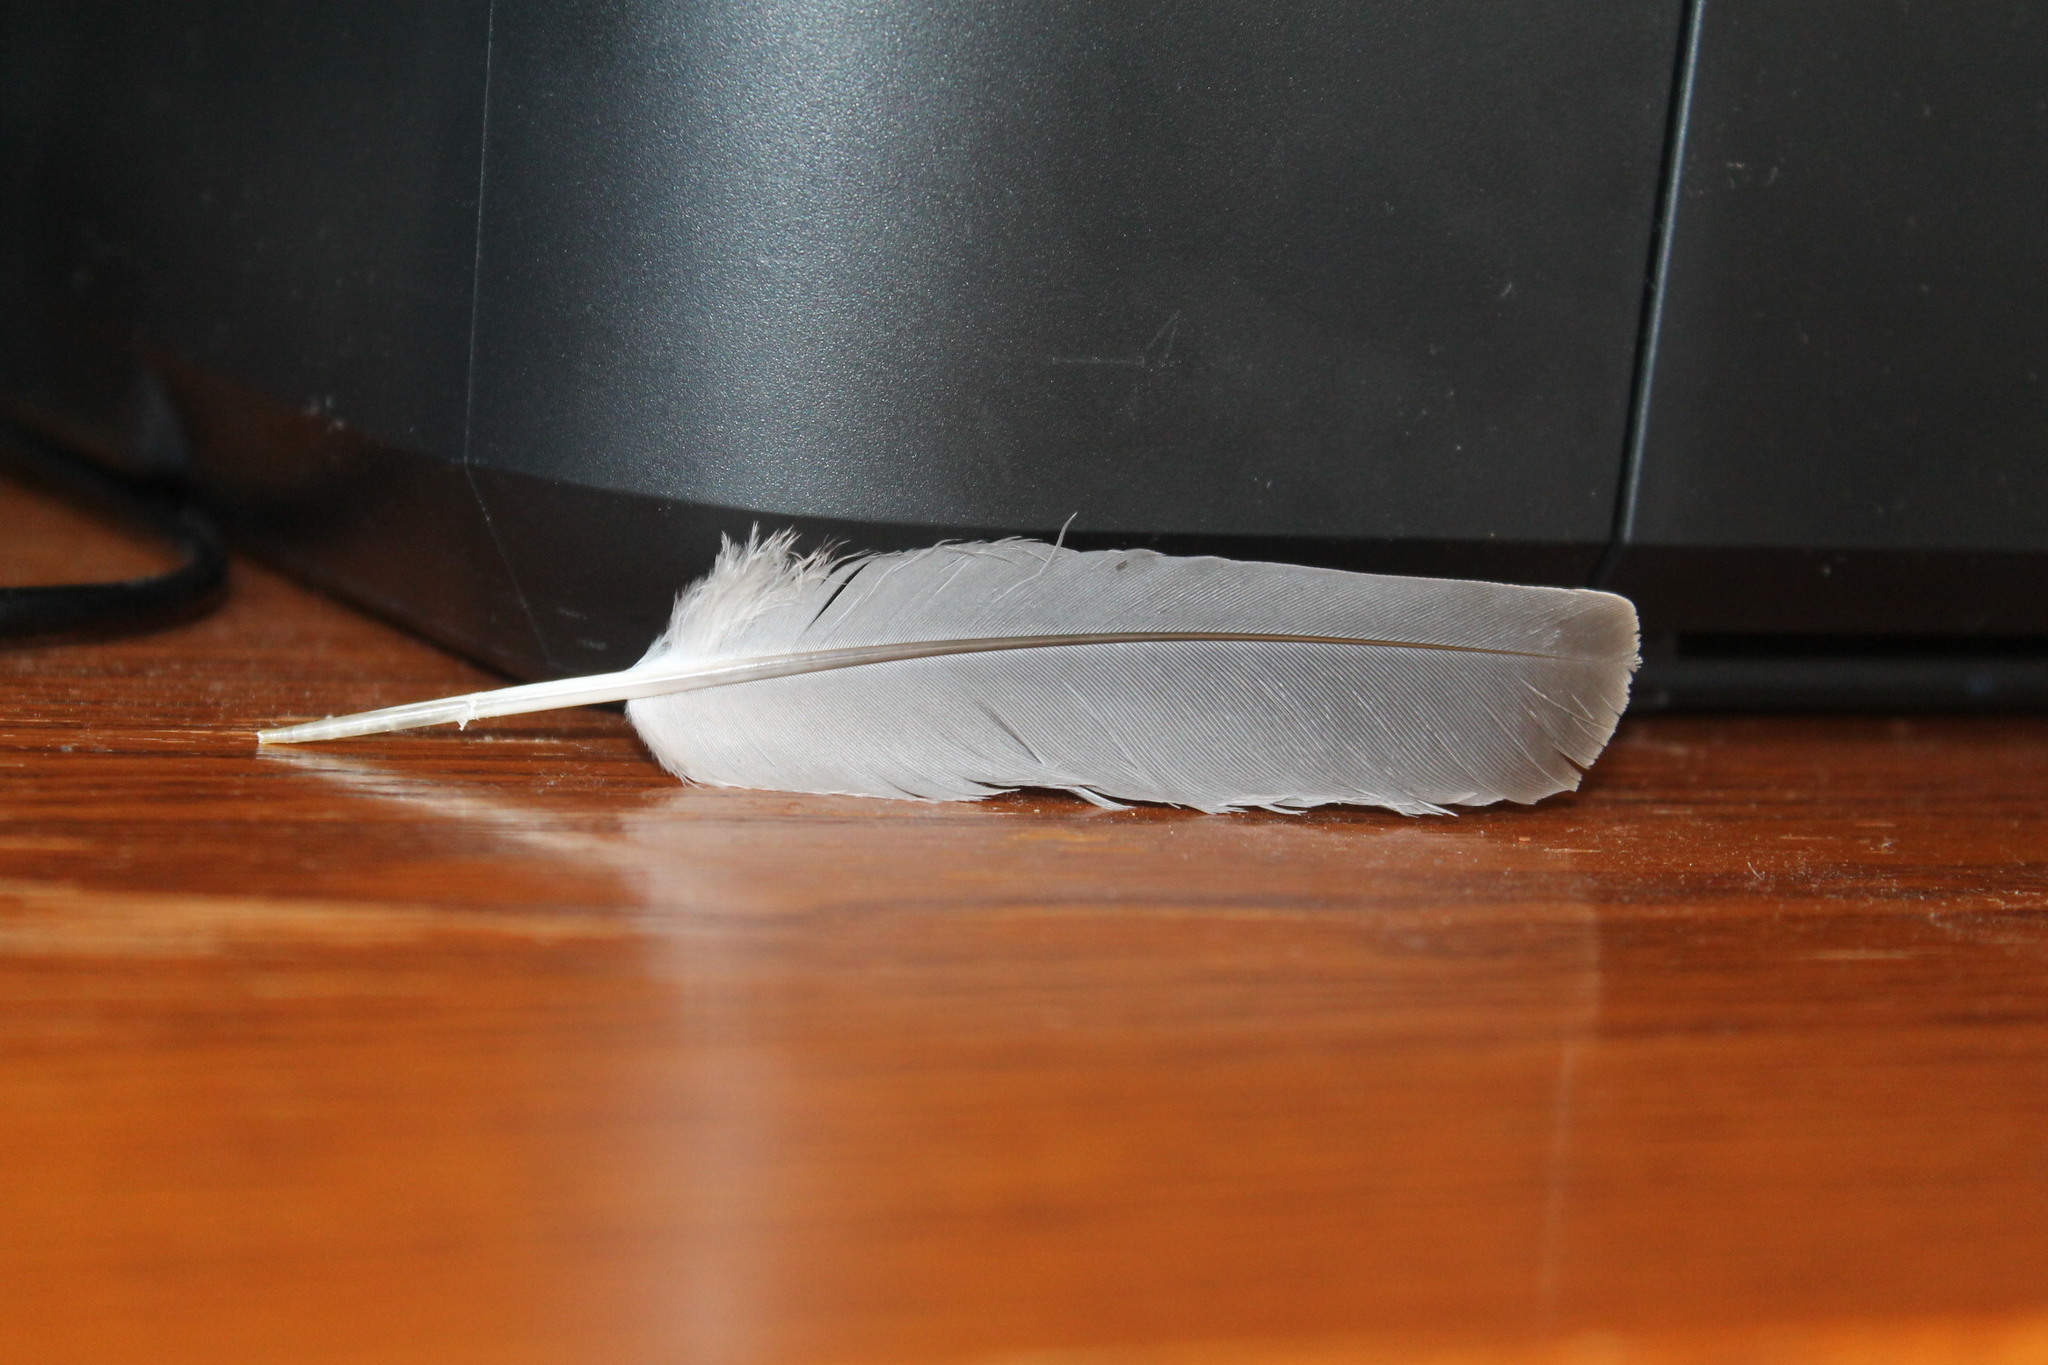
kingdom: Animalia
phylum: Chordata
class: Aves
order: Columbiformes
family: Columbidae
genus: Zenaida
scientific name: Zenaida macroura
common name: Mourning dove
